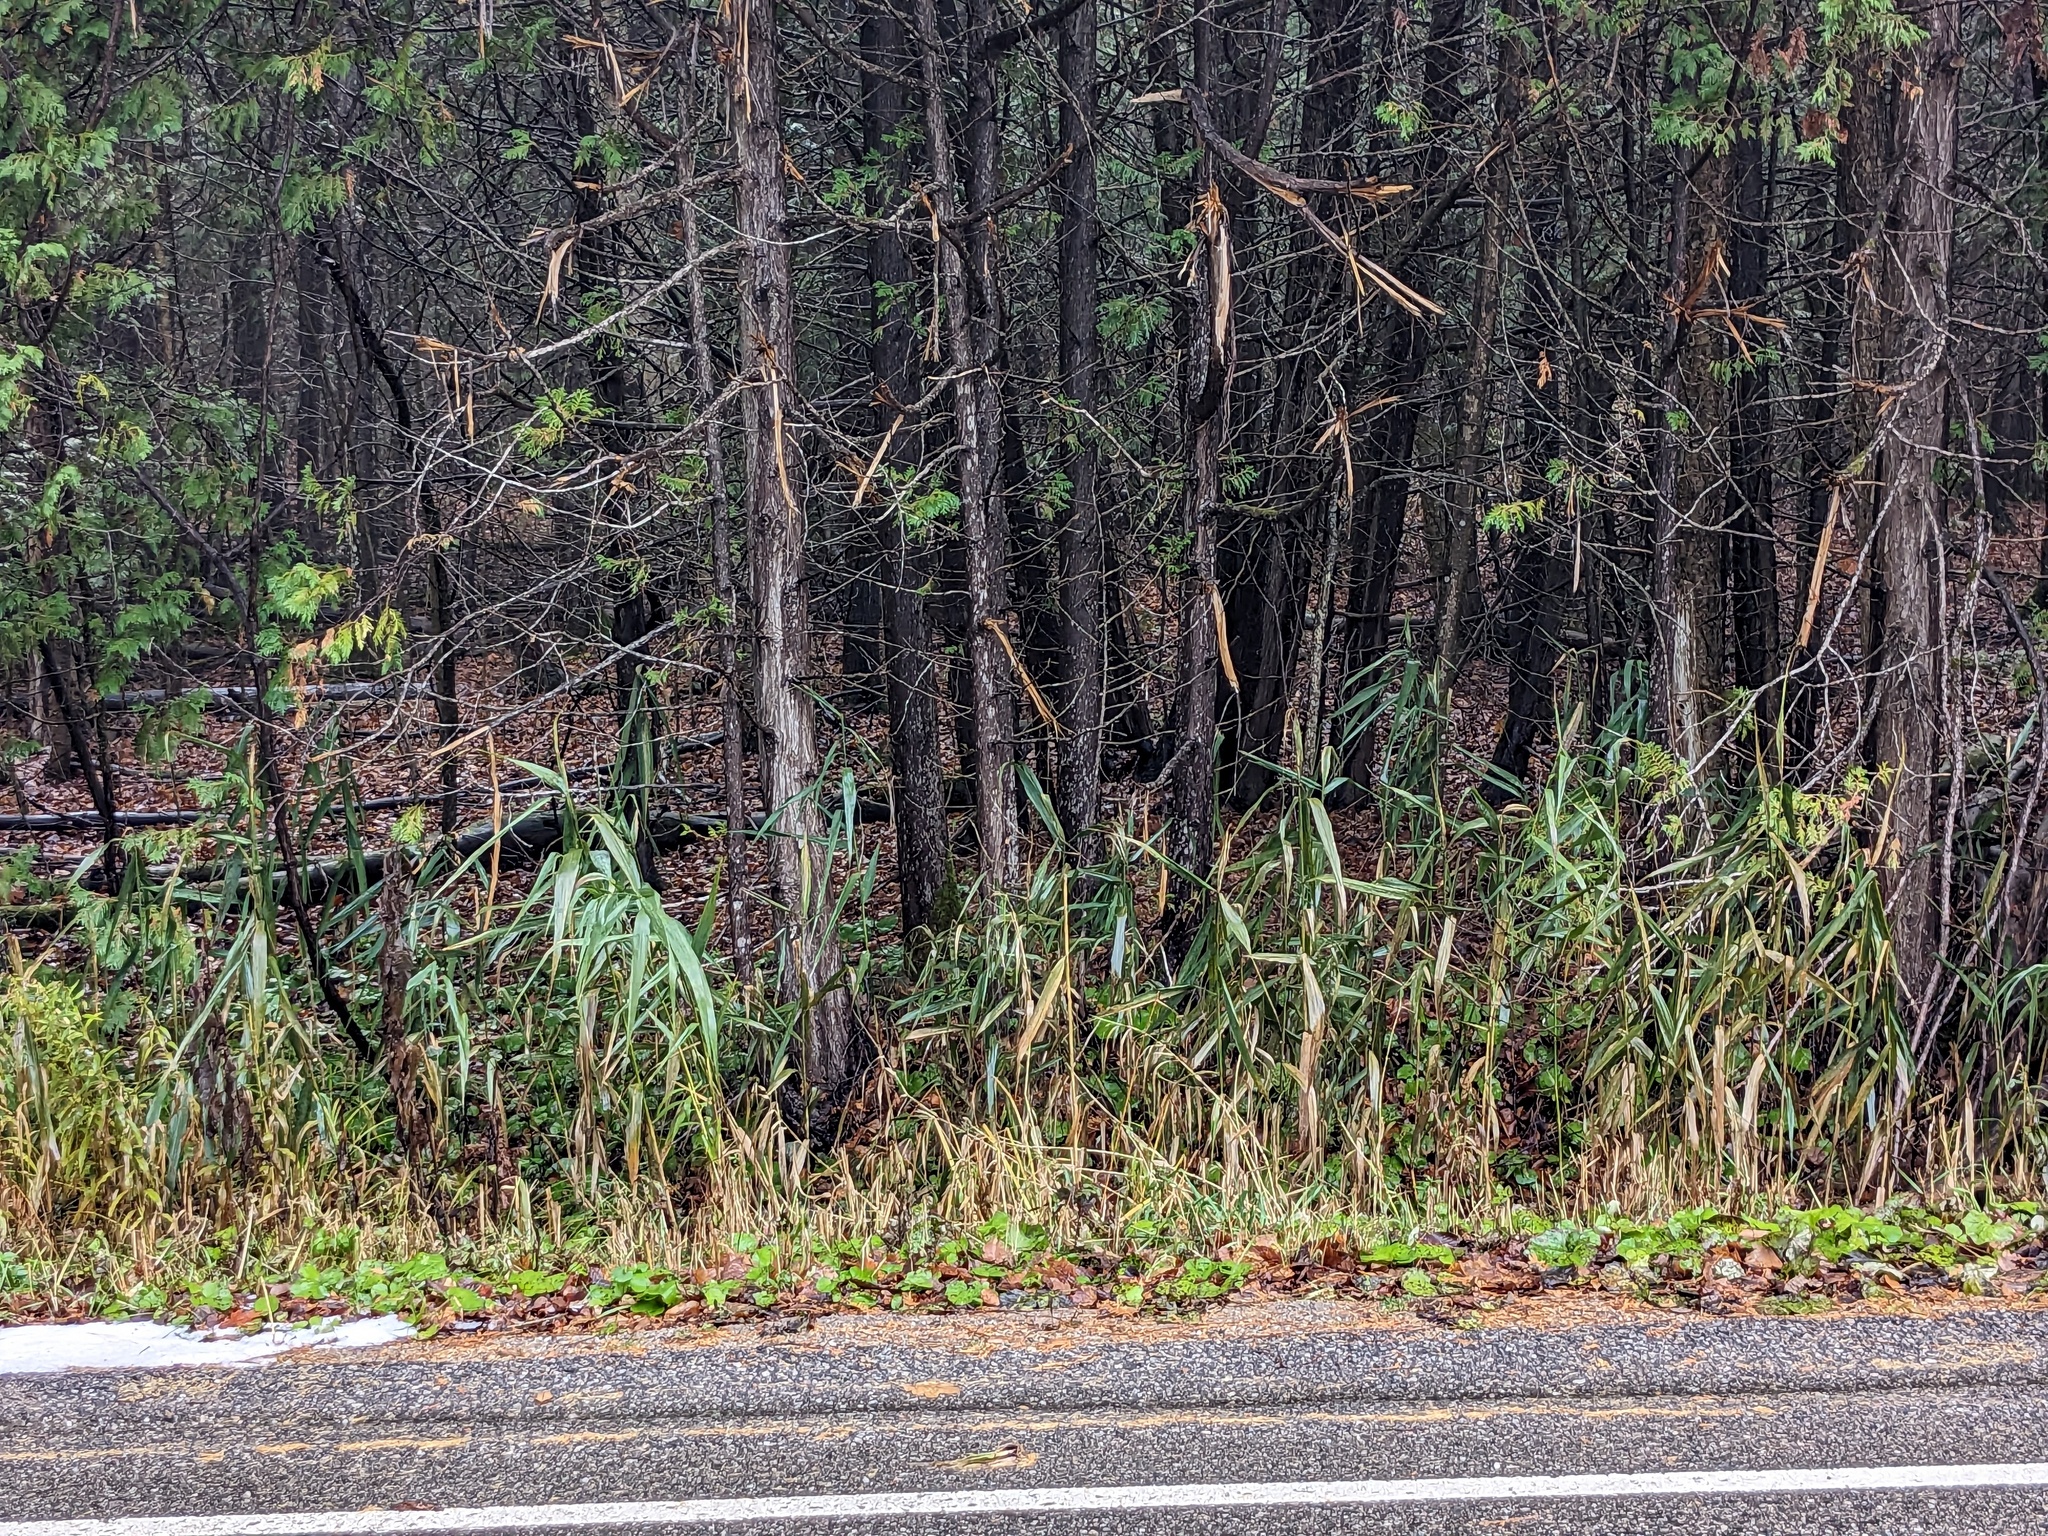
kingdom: Plantae
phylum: Tracheophyta
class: Liliopsida
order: Poales
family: Poaceae
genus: Phragmites
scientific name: Phragmites australis
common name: Common reed
